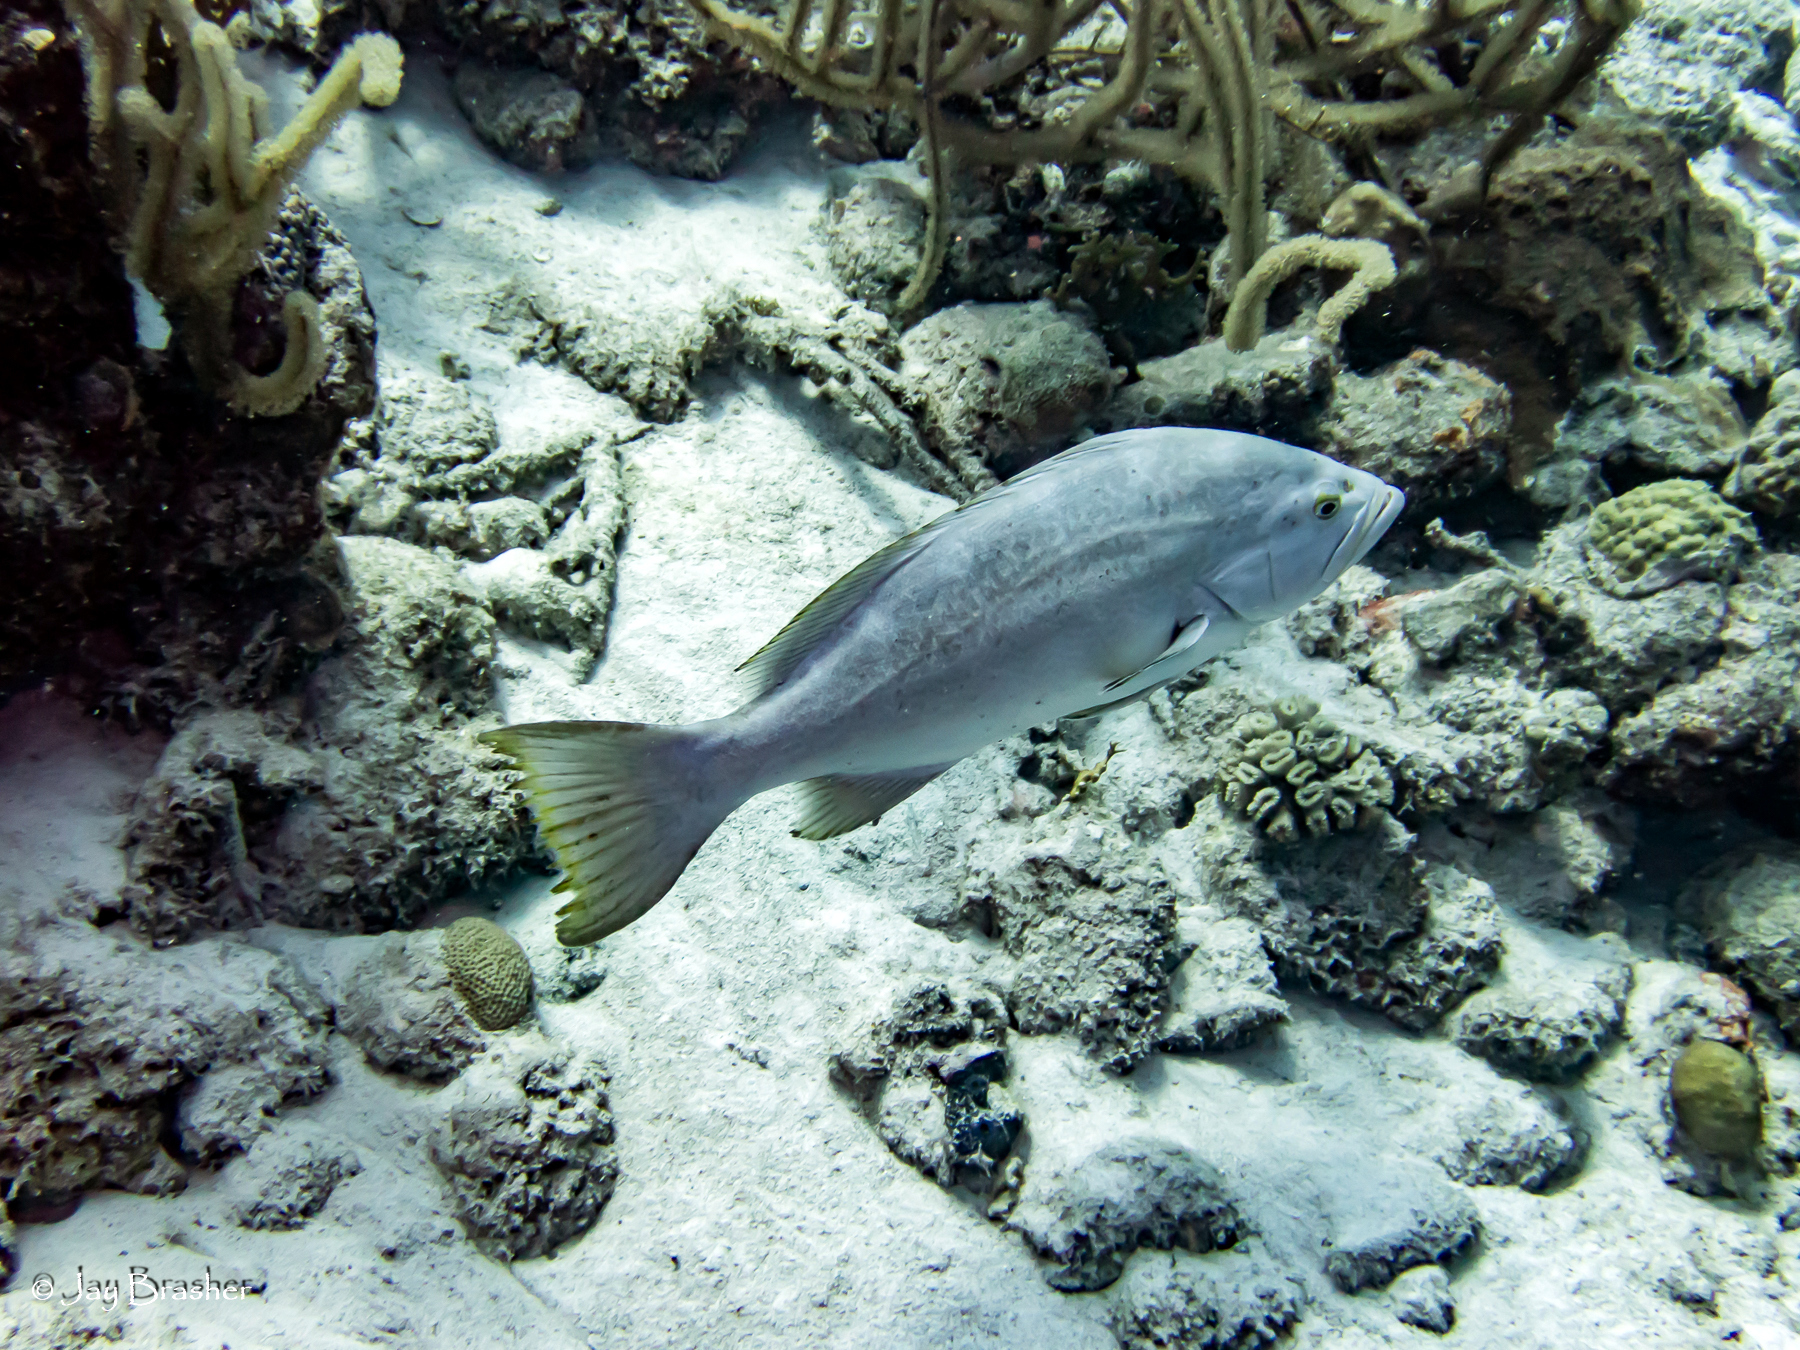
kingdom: Animalia
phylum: Chordata
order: Perciformes
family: Serranidae
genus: Mycteroperca
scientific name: Mycteroperca bonaci
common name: Black grouper
